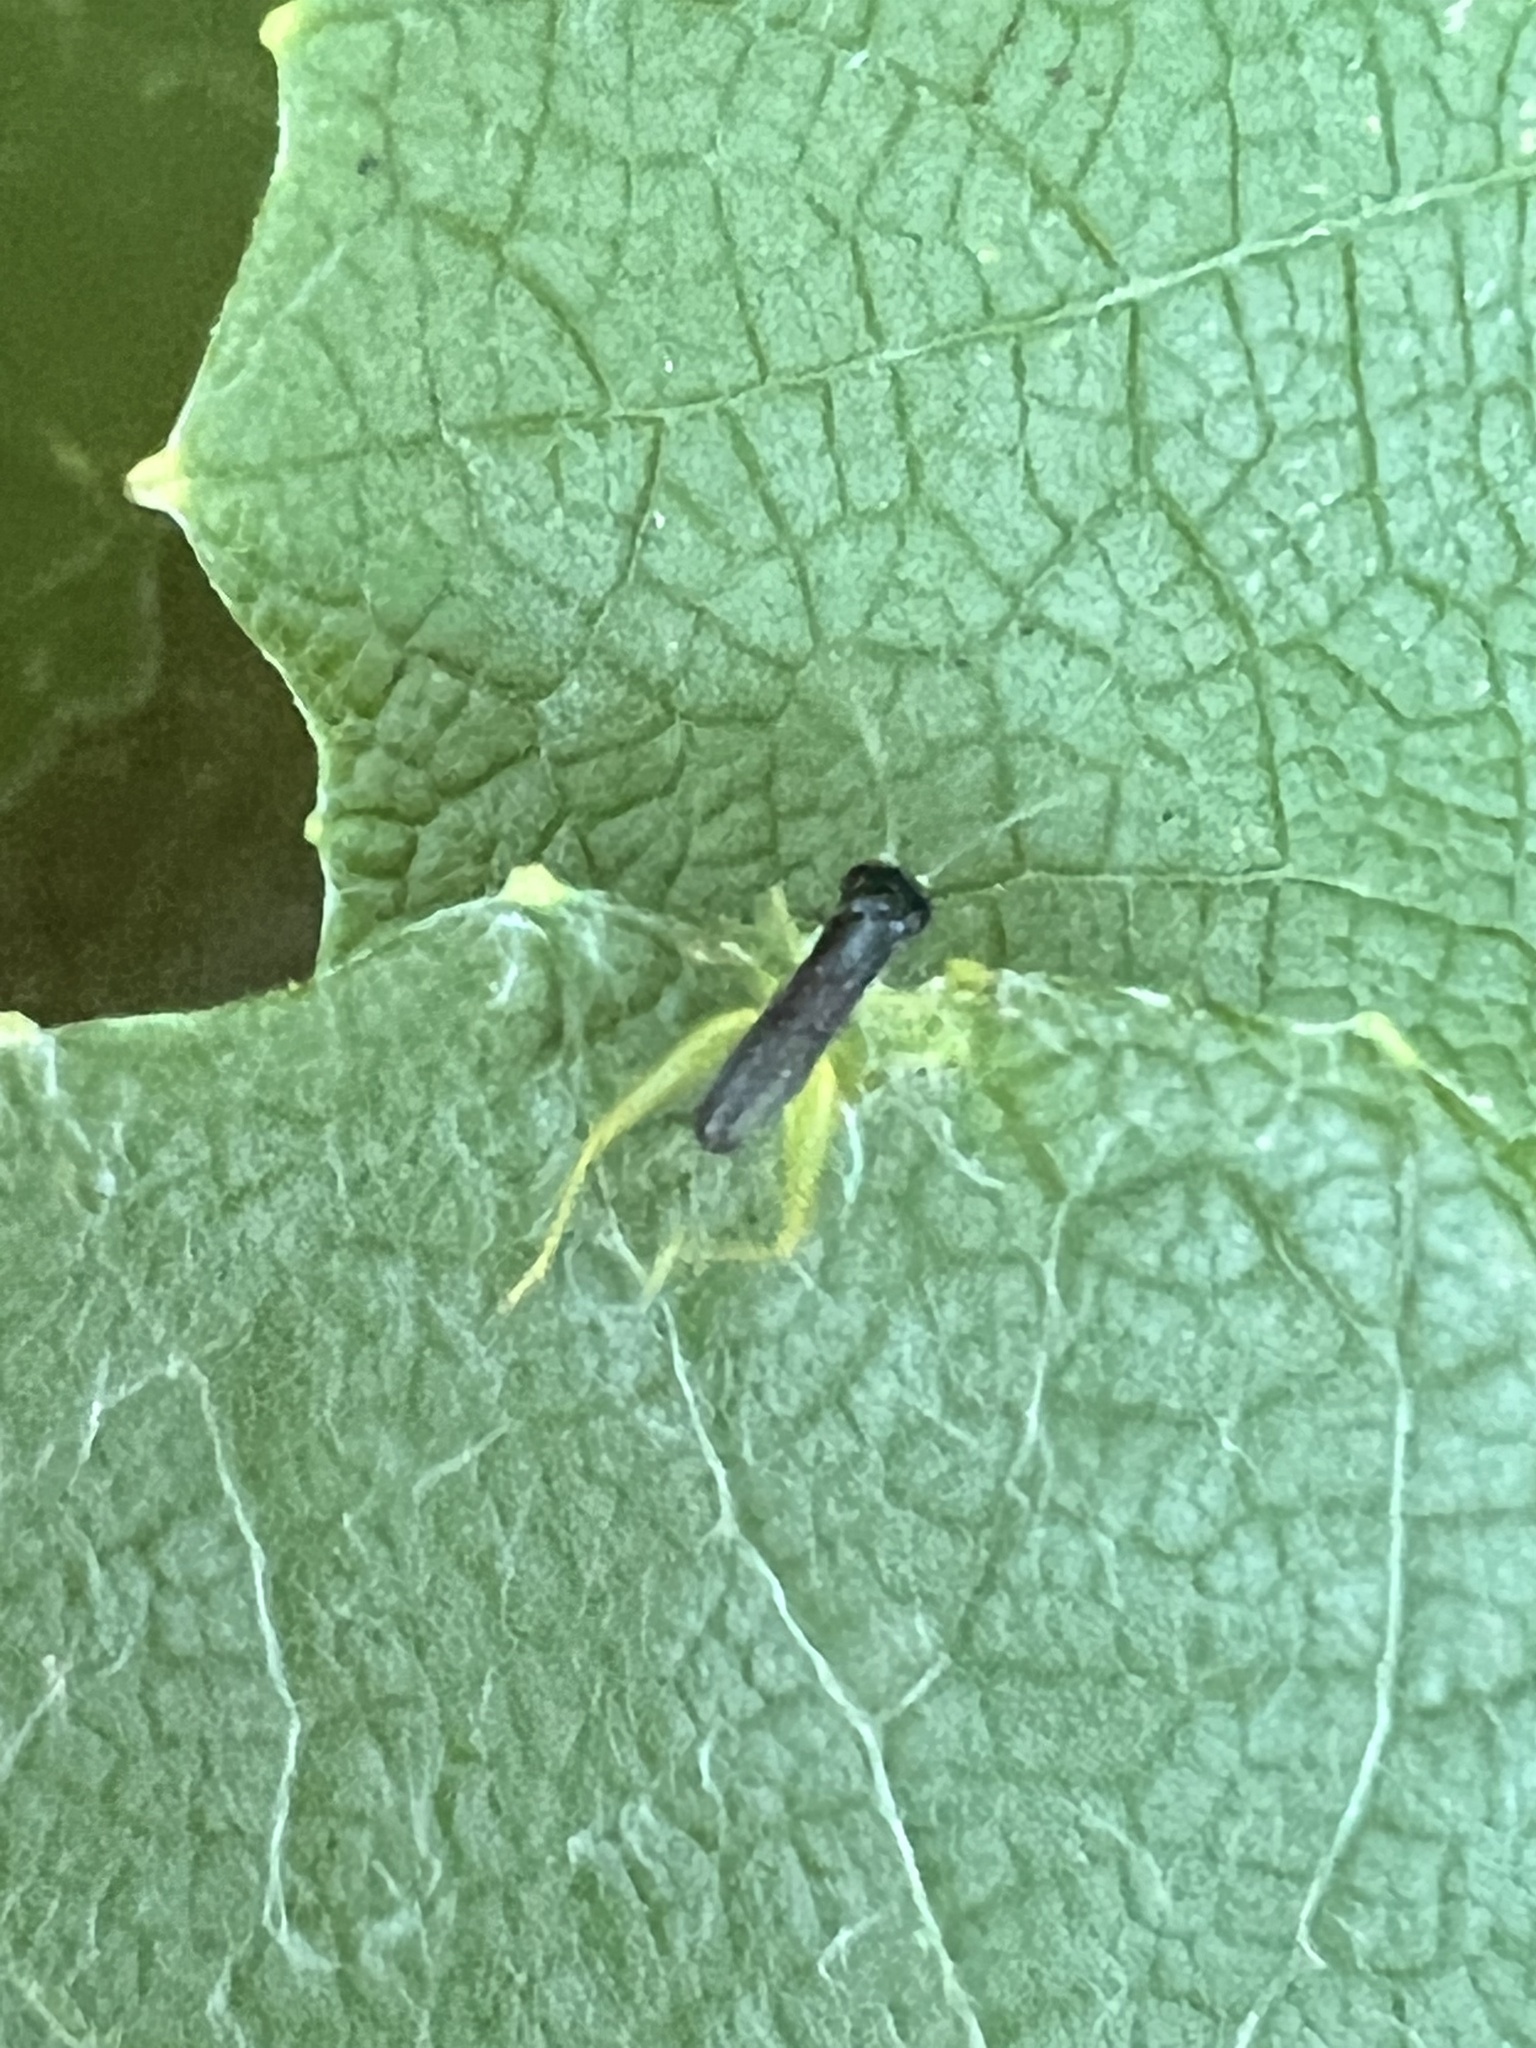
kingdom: Animalia
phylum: Arthropoda
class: Insecta
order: Orthoptera
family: Trigonidiidae
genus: Phyllopalpus
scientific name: Phyllopalpus pulchellus
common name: Handsome trig
